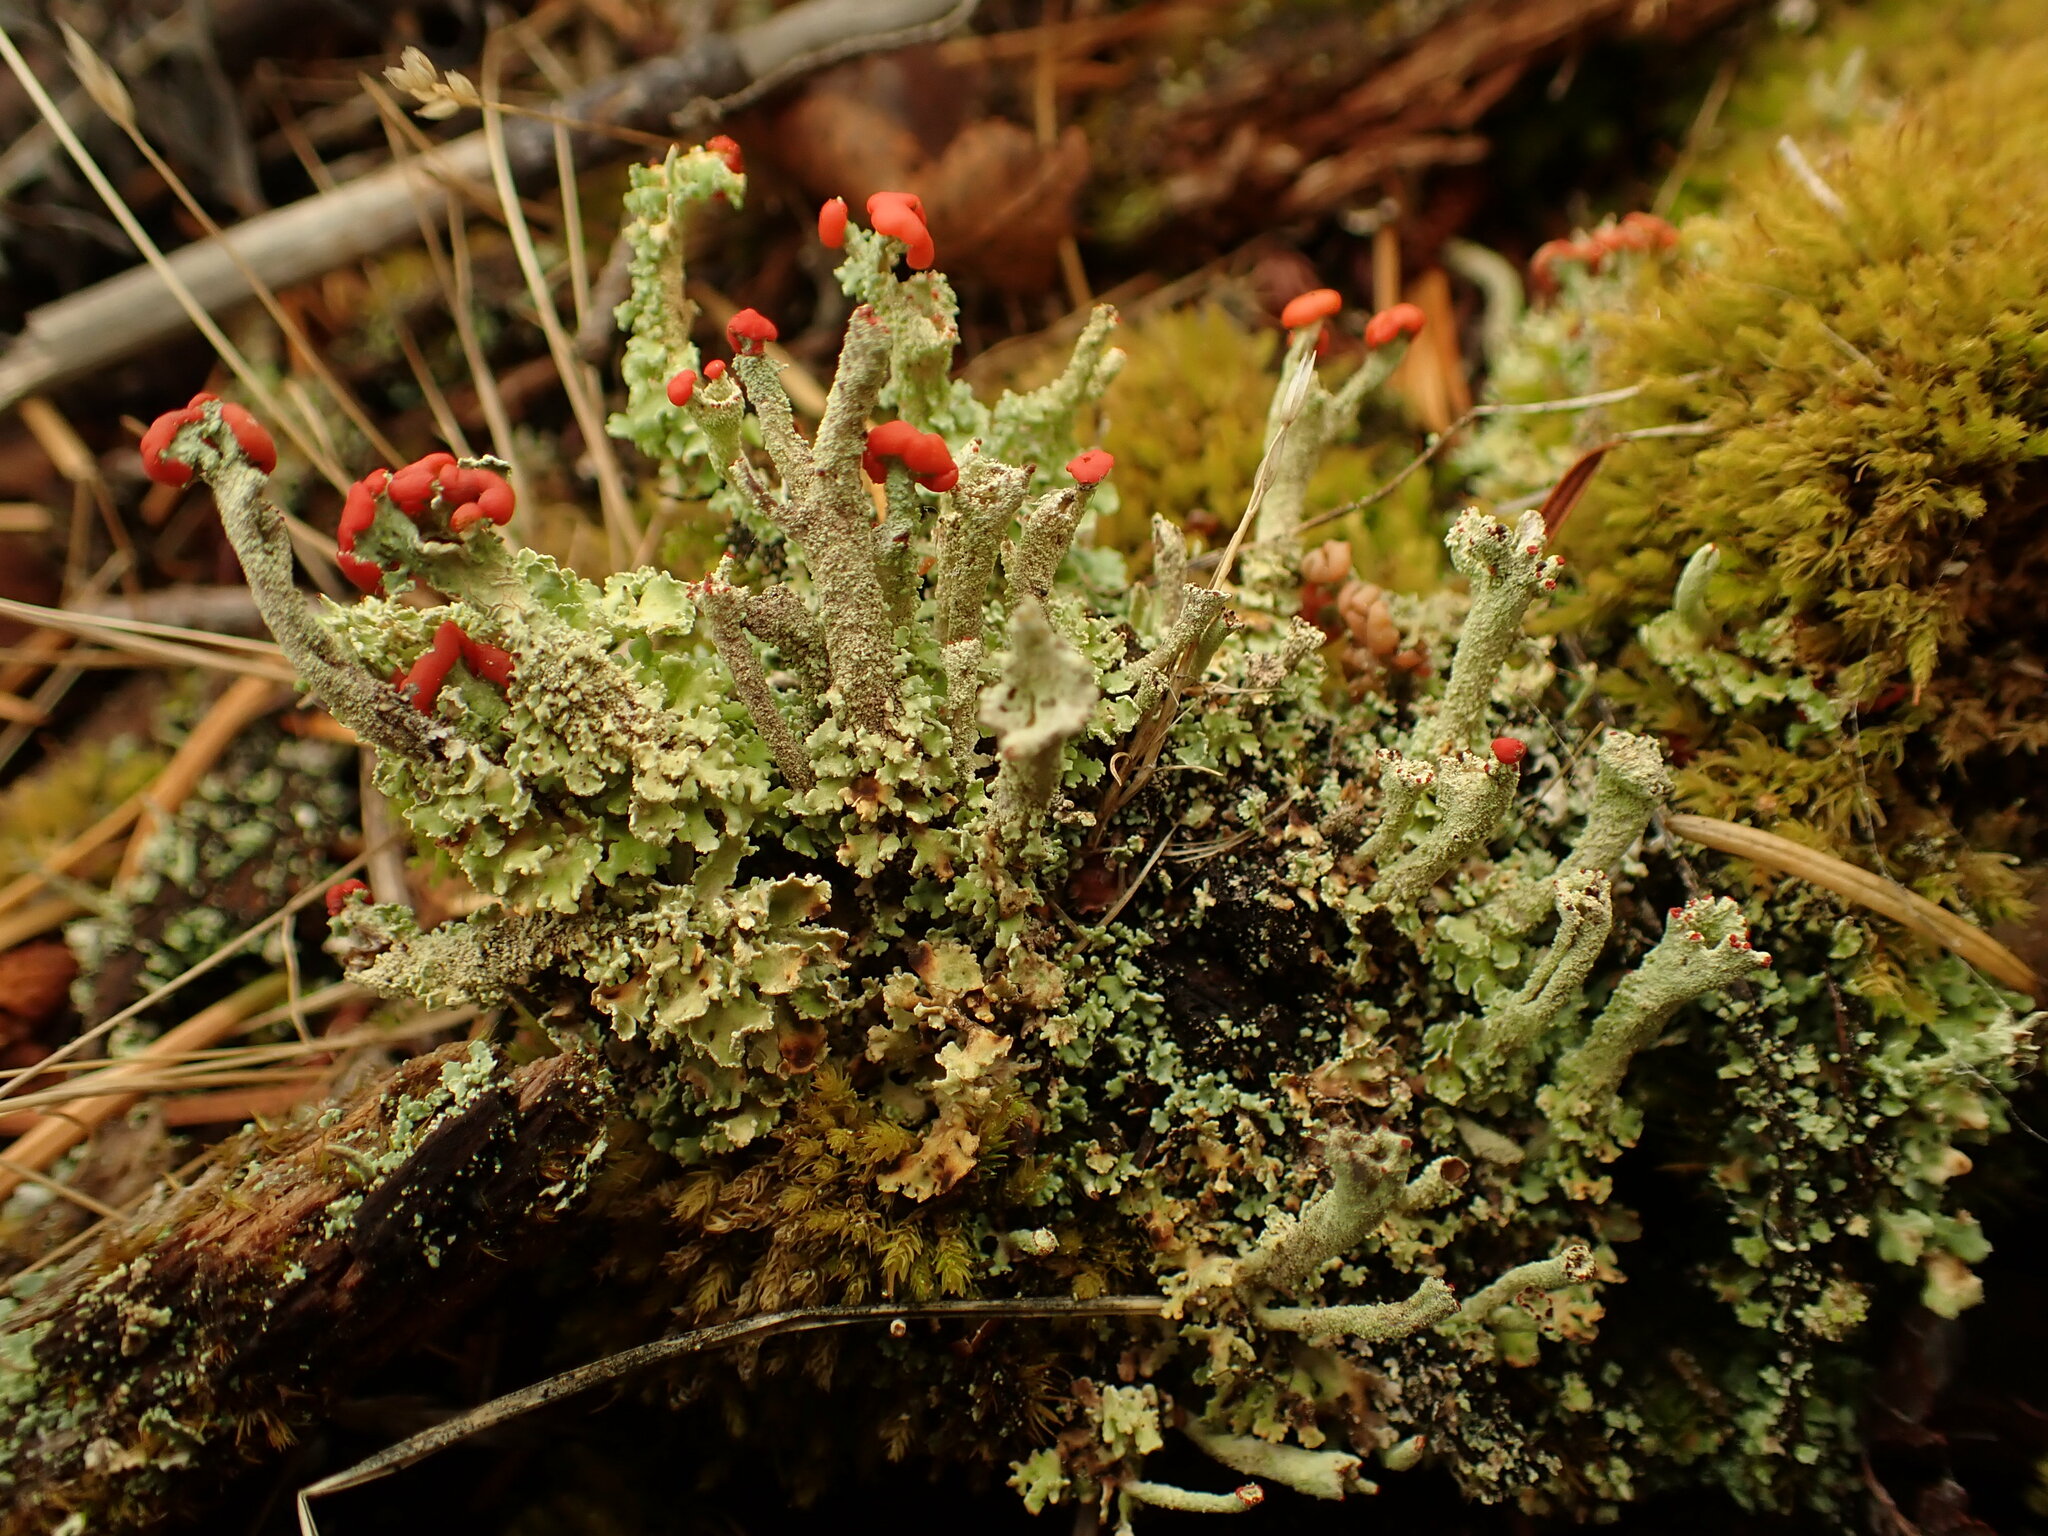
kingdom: Fungi
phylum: Ascomycota
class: Lecanoromycetes
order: Lecanorales
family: Cladoniaceae
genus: Cladonia
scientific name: Cladonia bellidiflora
